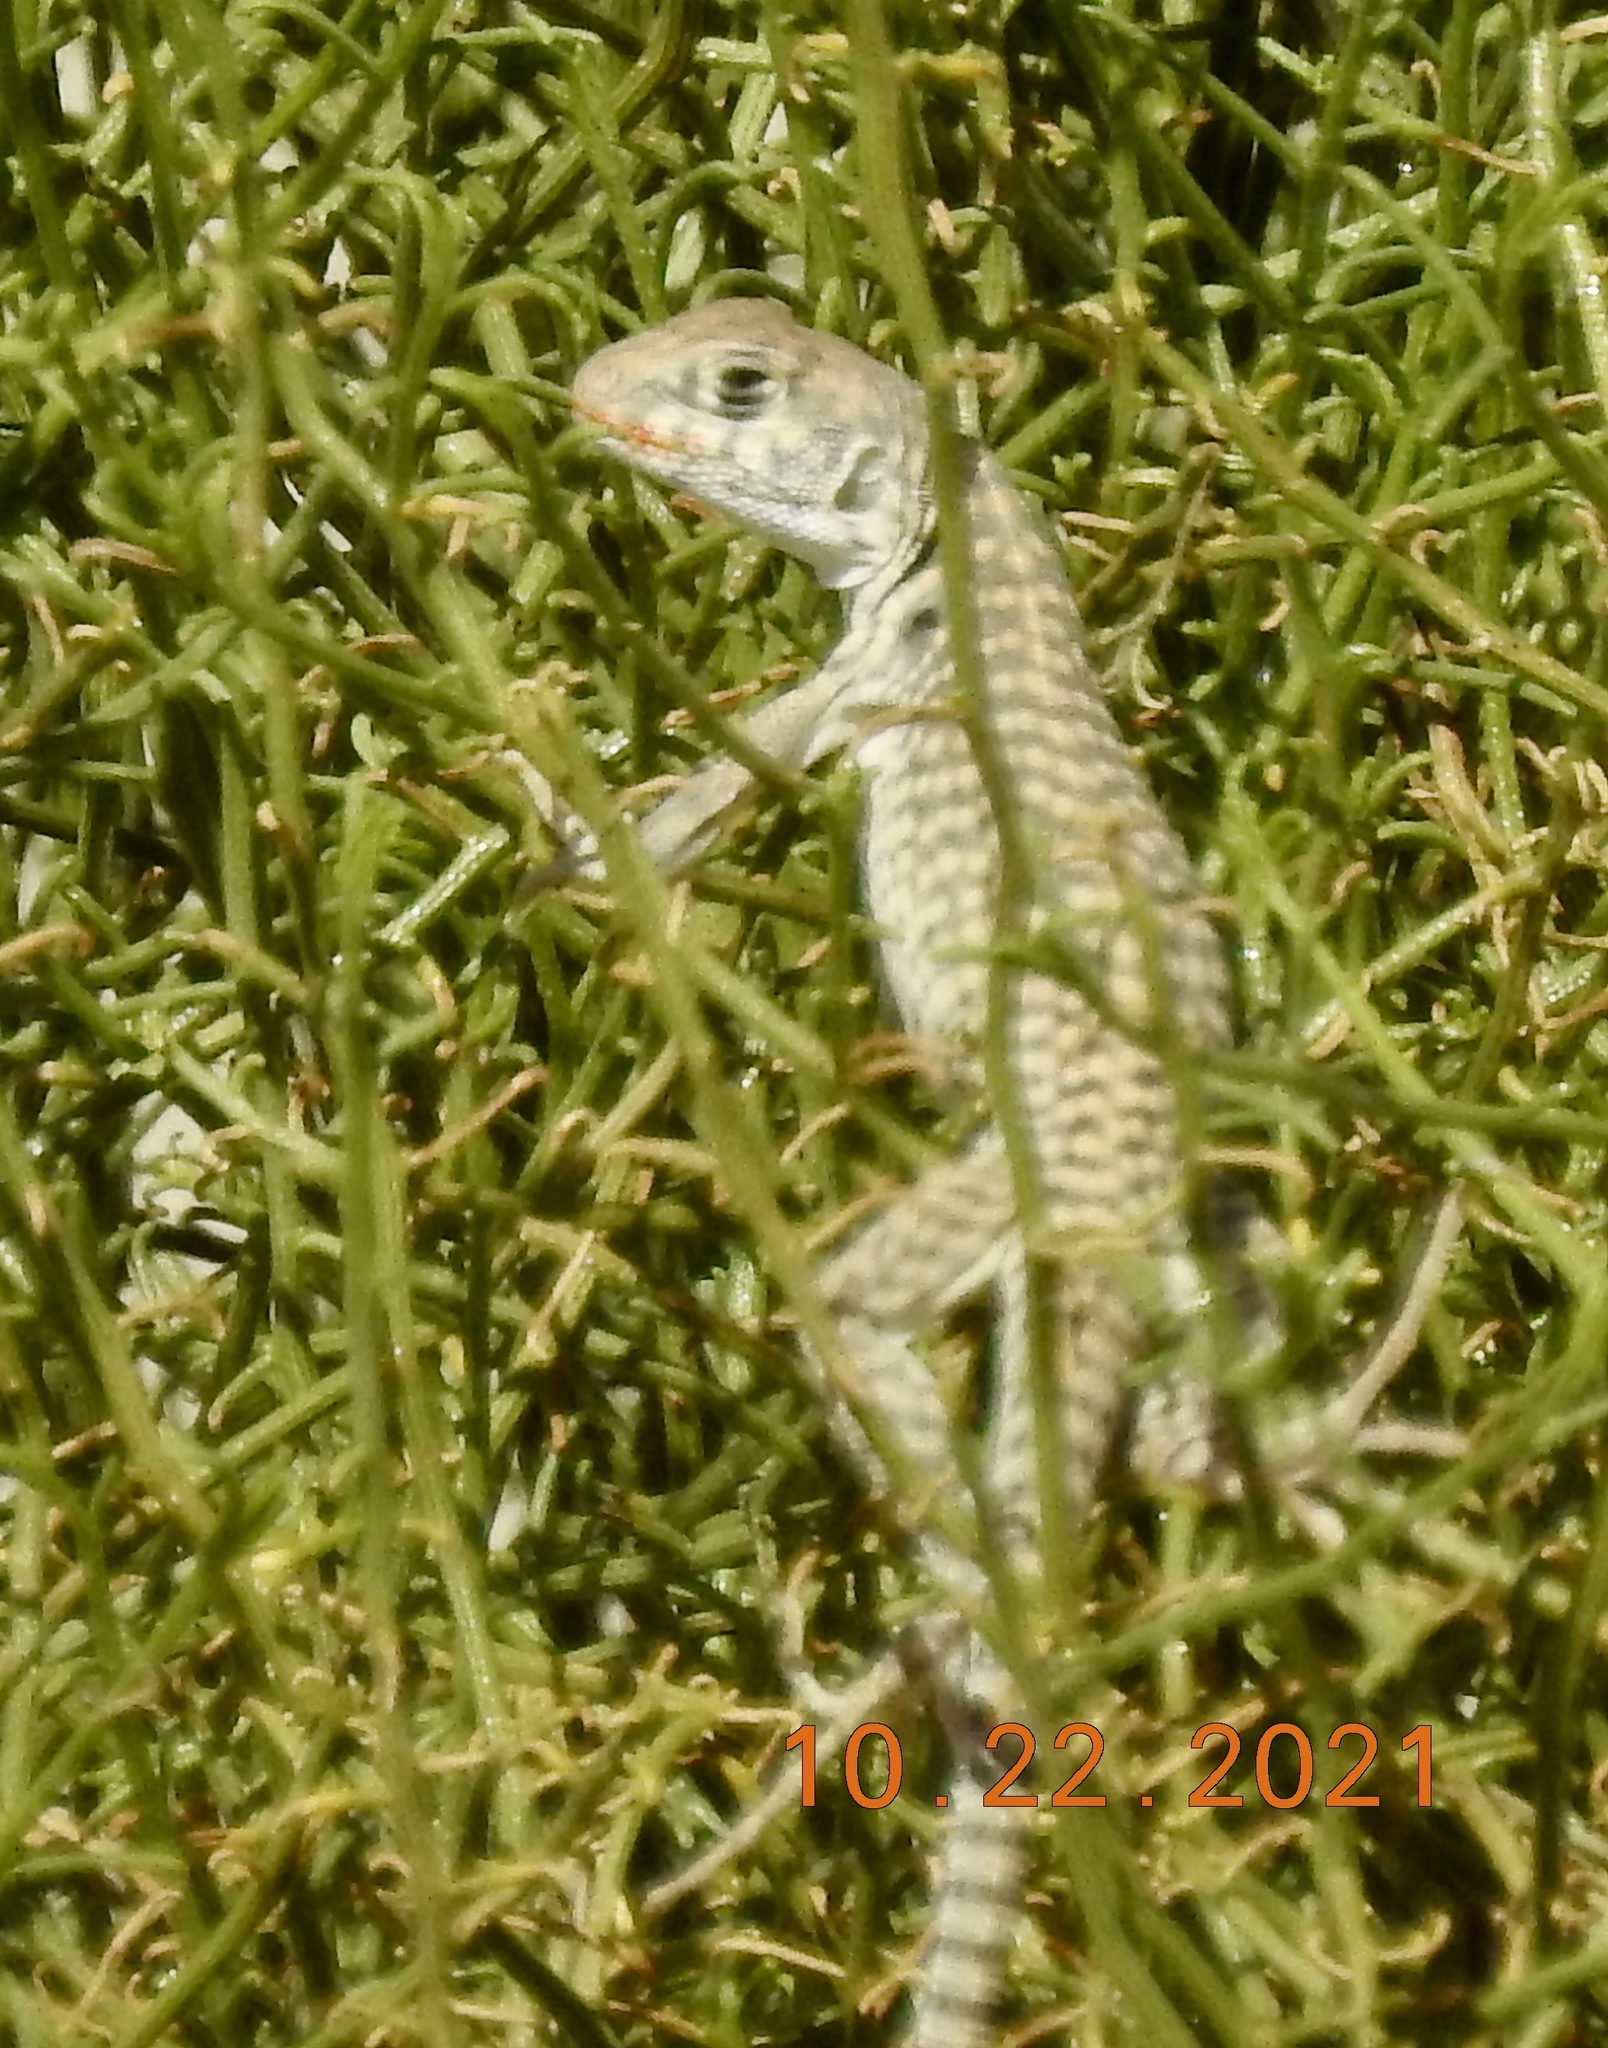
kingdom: Animalia
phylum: Chordata
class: Squamata
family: Iguanidae
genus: Dipsosaurus
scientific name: Dipsosaurus dorsalis
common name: Desert iguana
